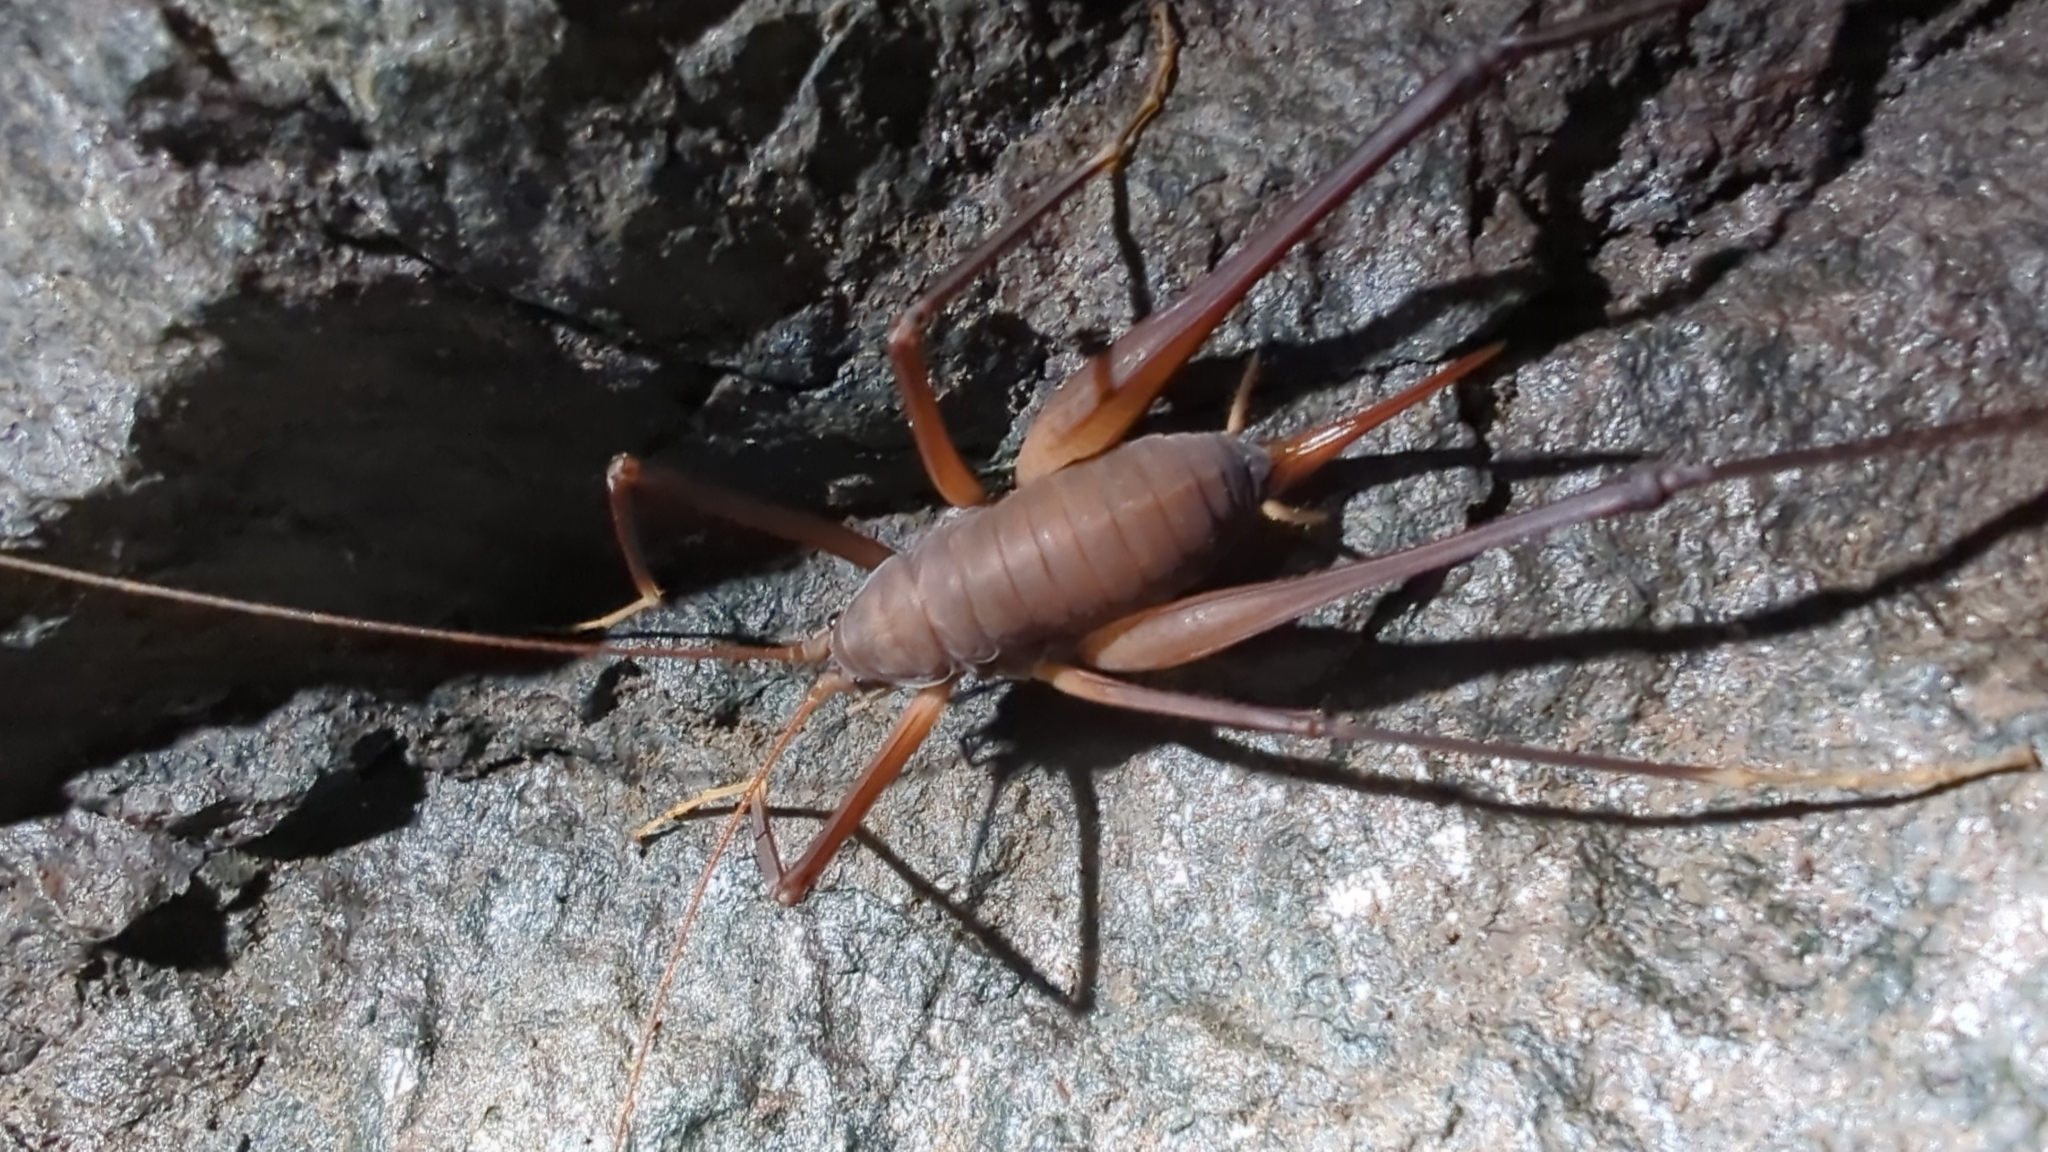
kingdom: Animalia
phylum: Arthropoda
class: Insecta
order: Orthoptera
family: Rhaphidophoridae
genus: Tropidischia
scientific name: Tropidischia xanthostoma
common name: Square-legged camel cricket
